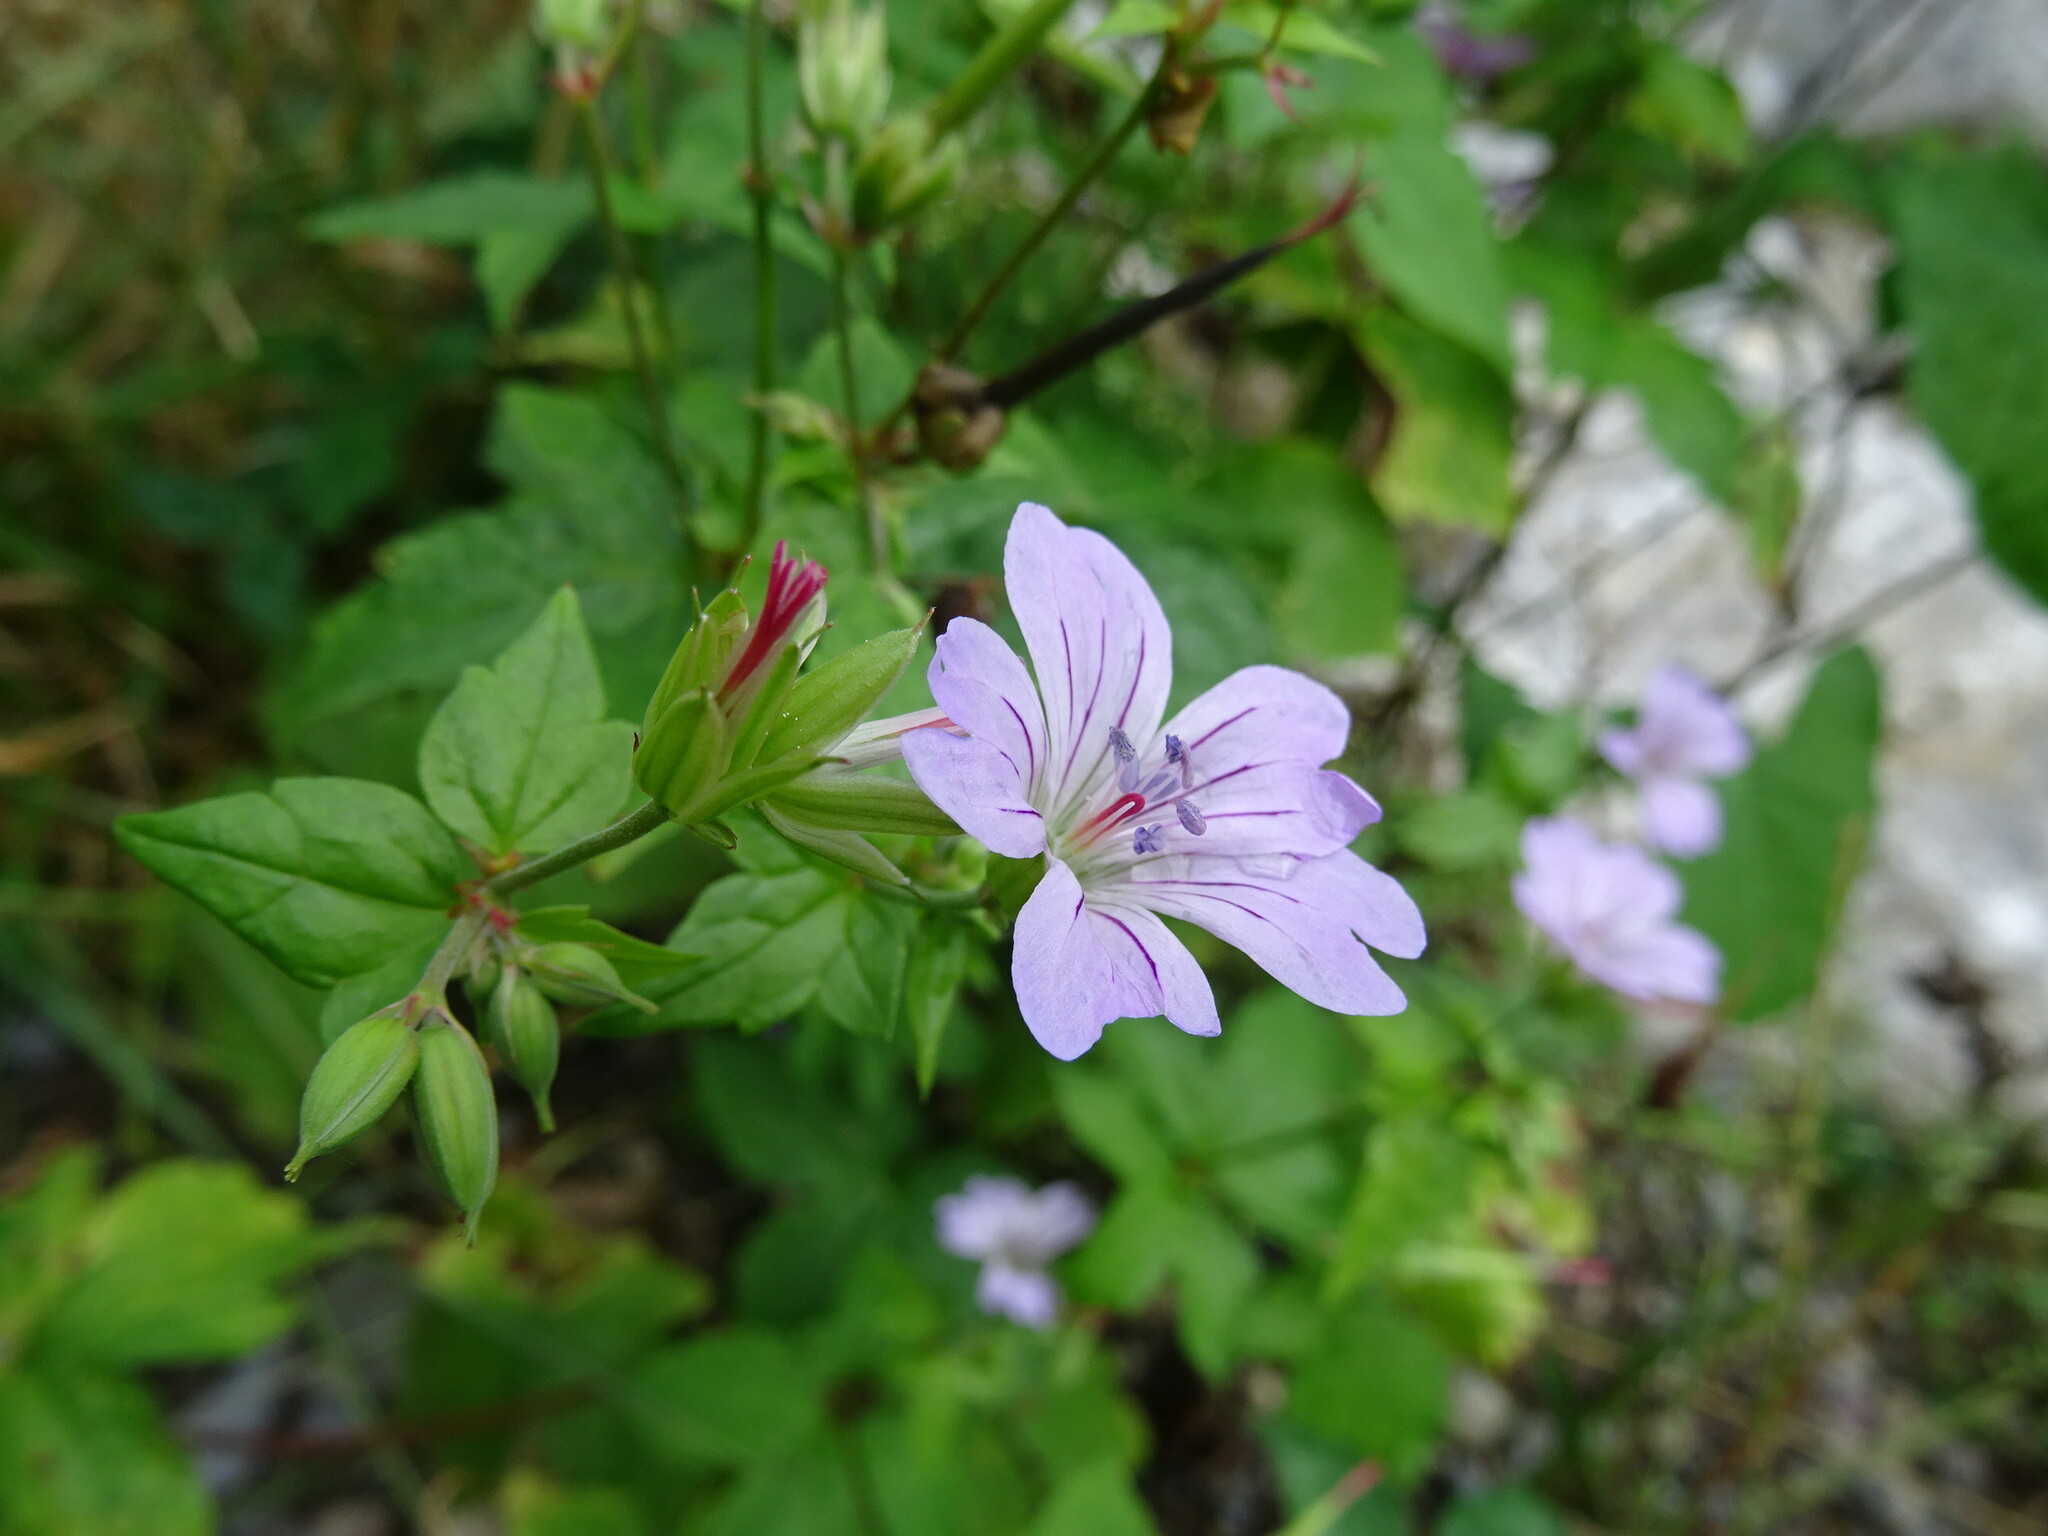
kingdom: Plantae
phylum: Tracheophyta
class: Magnoliopsida
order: Geraniales
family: Geraniaceae
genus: Geranium
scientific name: Geranium nodosum
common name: Knotted crane's-bill
